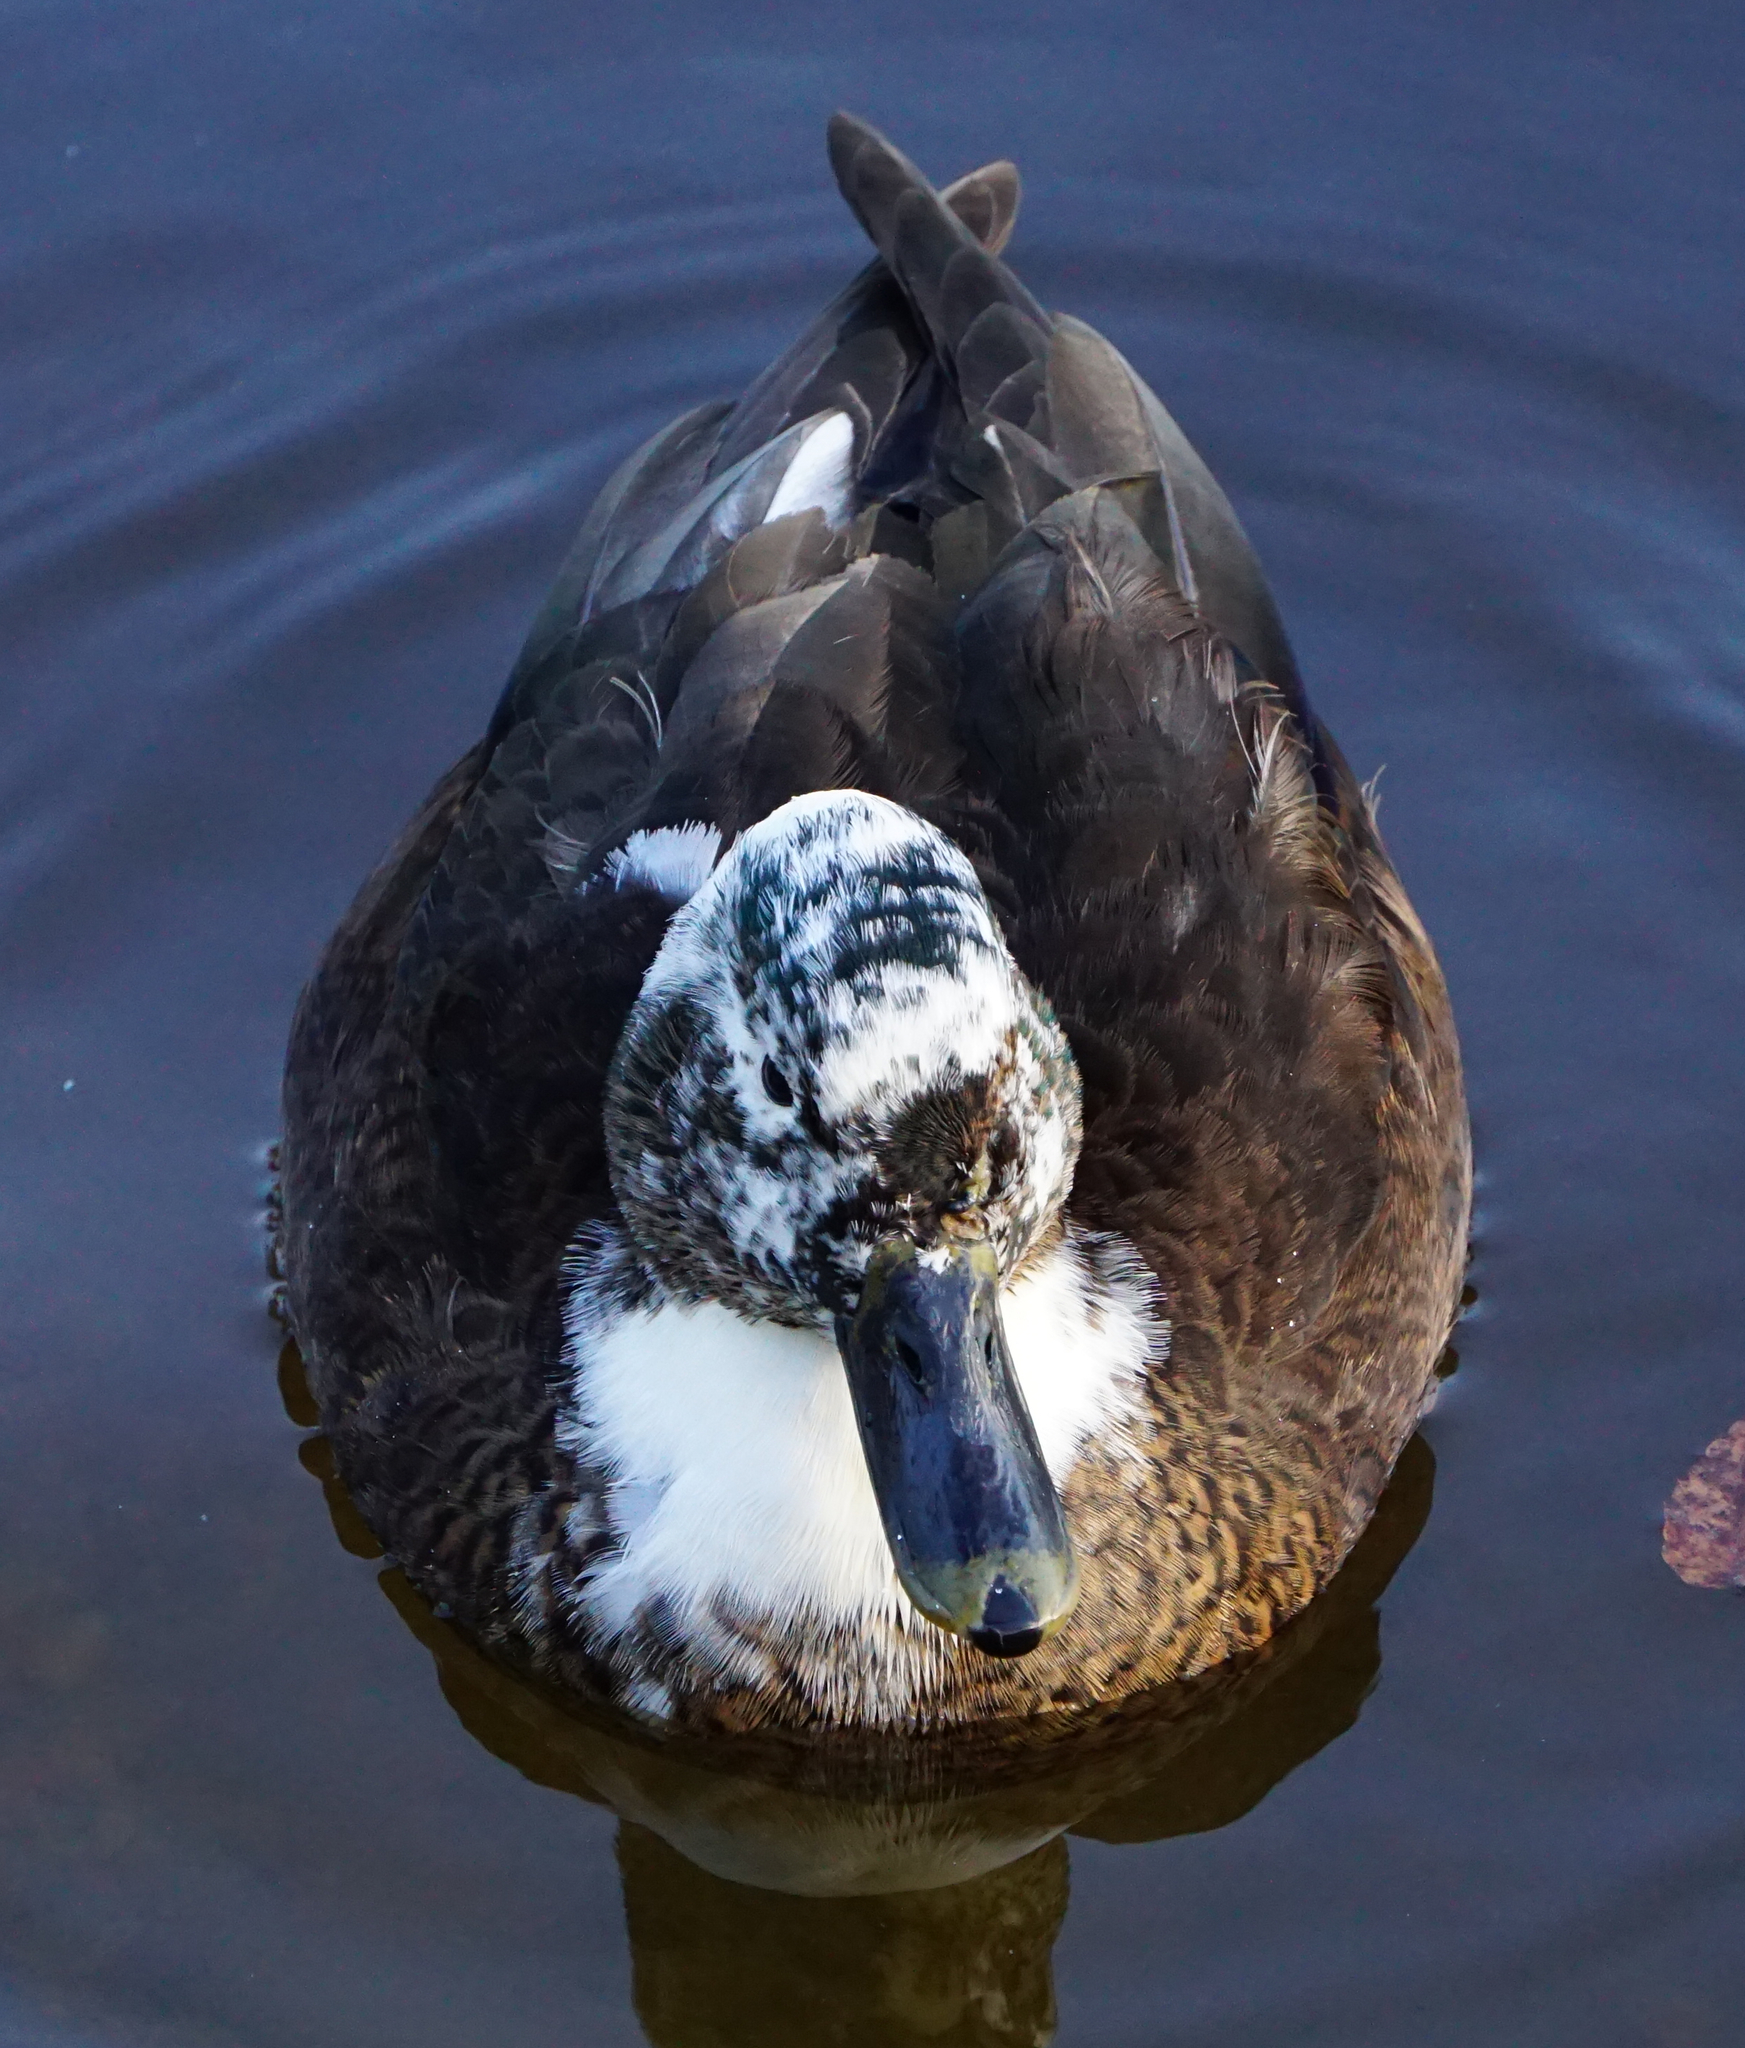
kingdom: Animalia
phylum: Chordata
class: Aves
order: Anseriformes
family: Anatidae
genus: Anas
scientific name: Anas platyrhynchos
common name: Mallard
